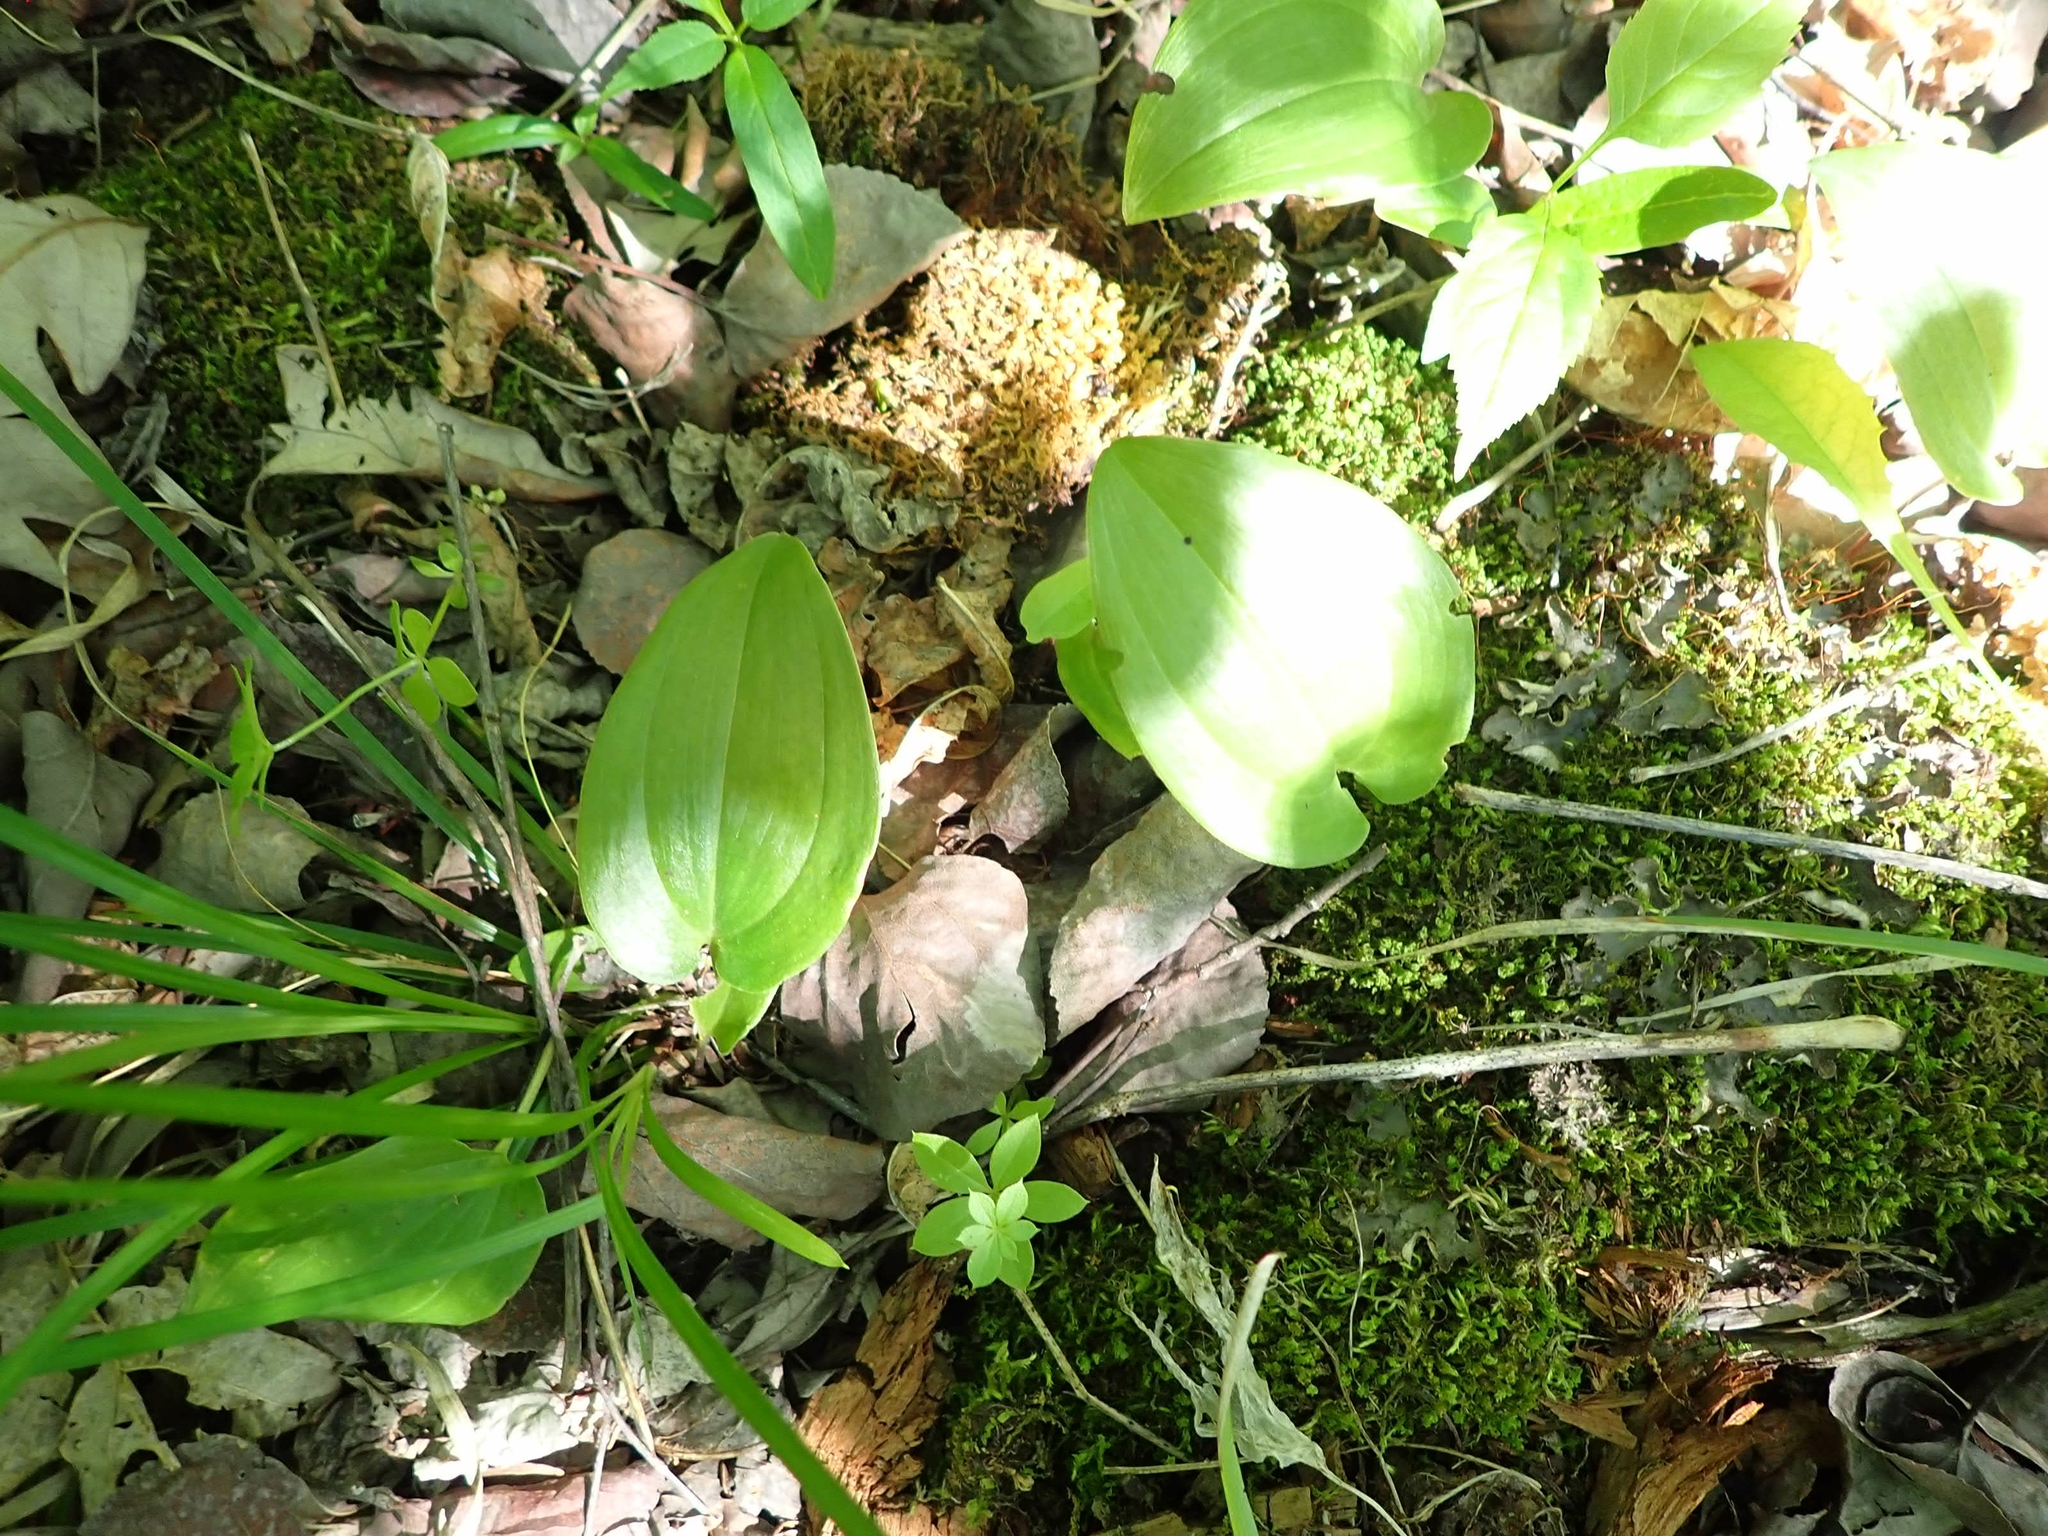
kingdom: Plantae
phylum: Tracheophyta
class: Liliopsida
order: Asparagales
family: Asparagaceae
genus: Maianthemum
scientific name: Maianthemum canadense
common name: False lily-of-the-valley
